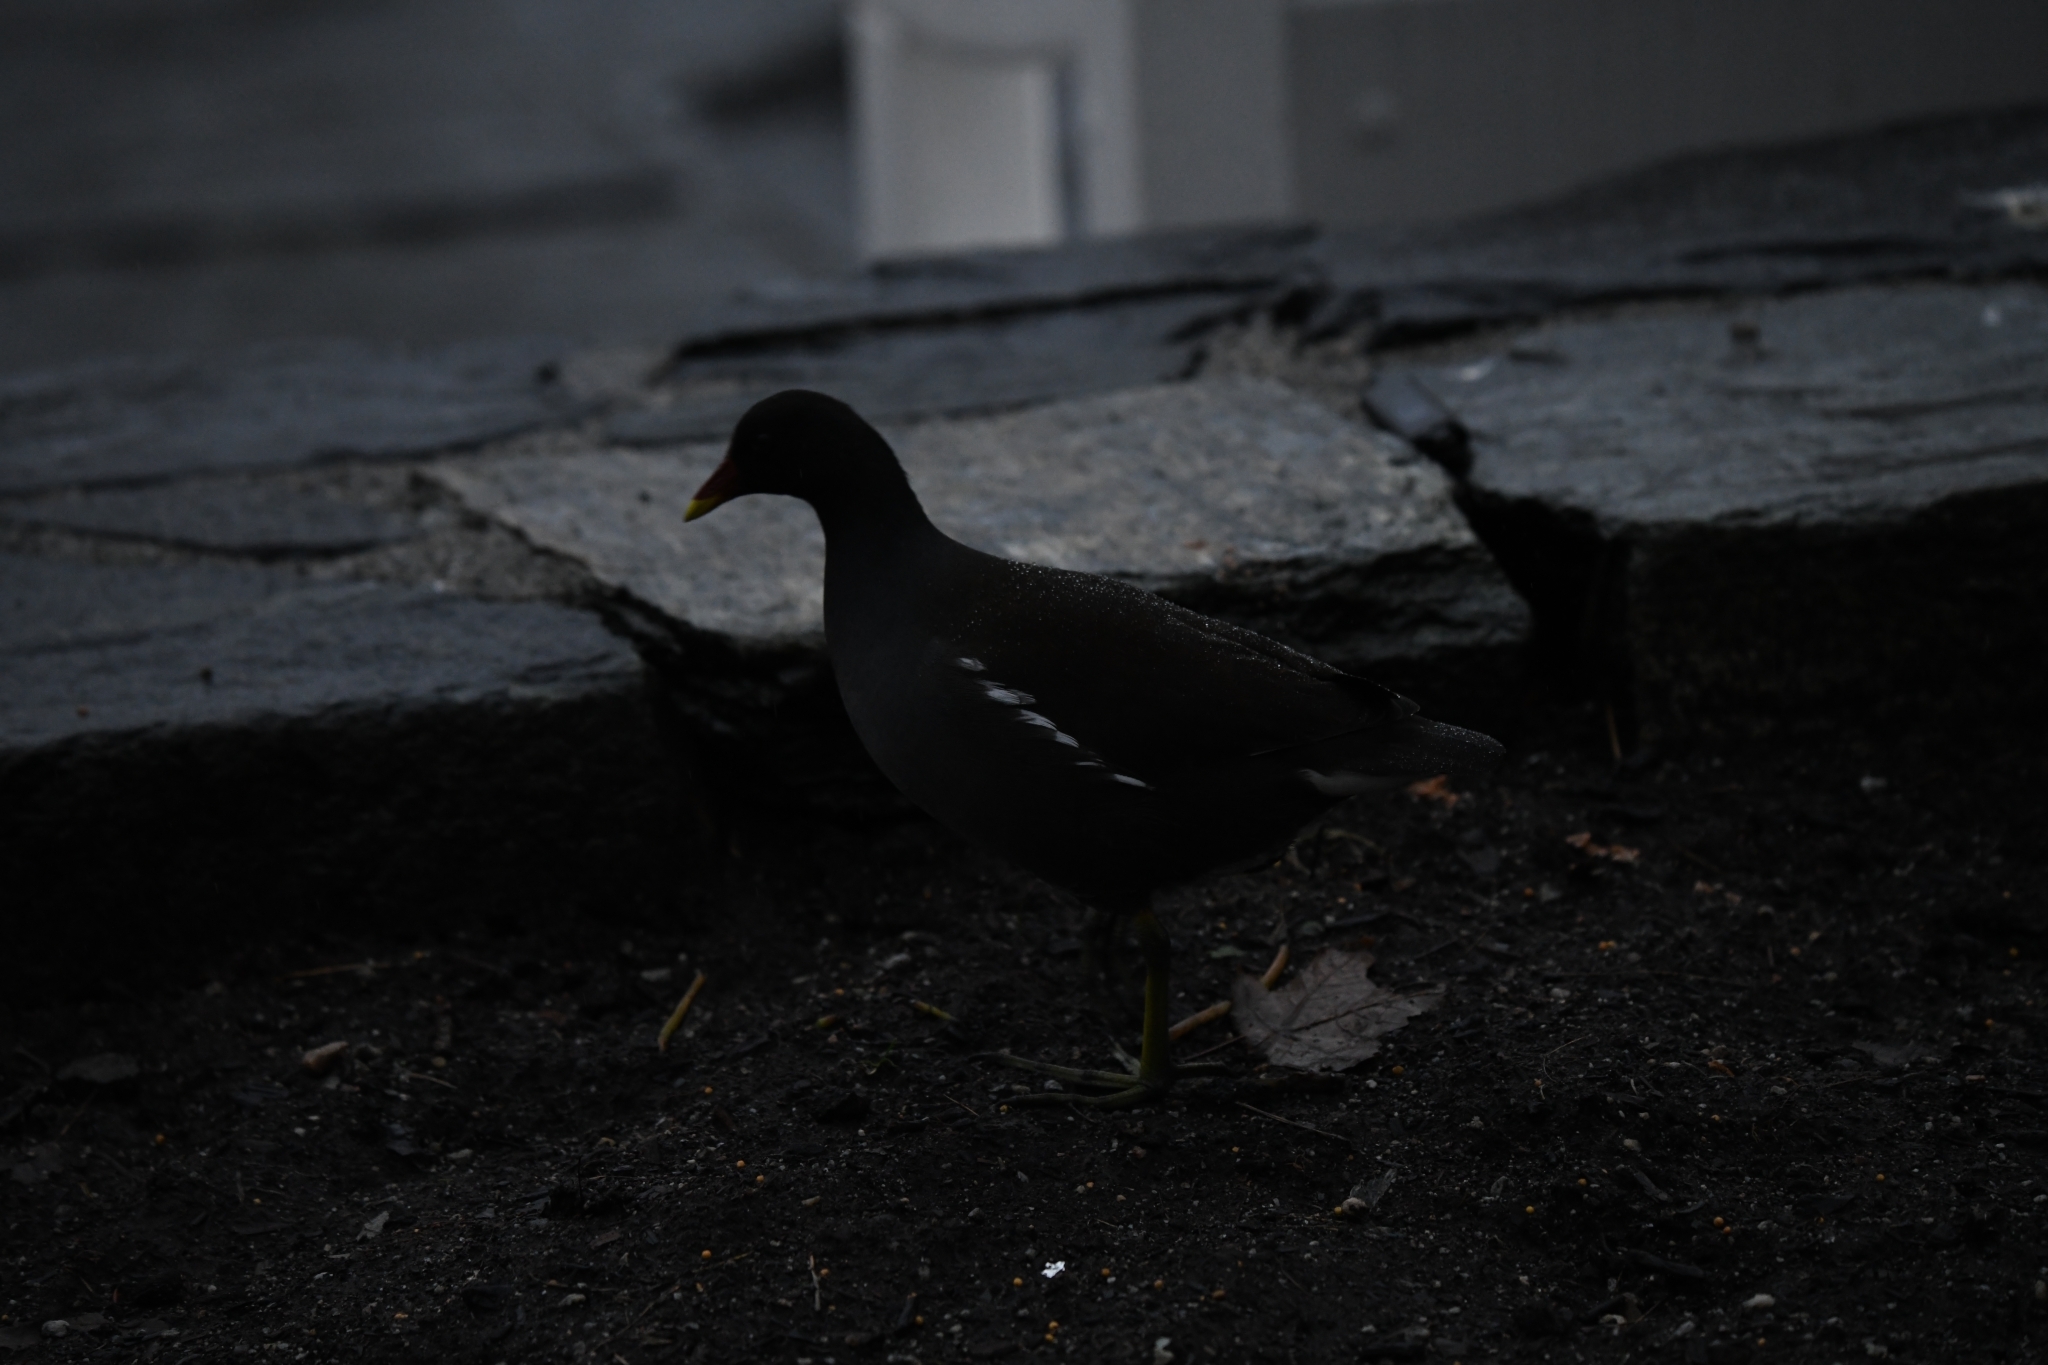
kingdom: Animalia
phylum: Chordata
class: Aves
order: Gruiformes
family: Rallidae
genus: Gallinula
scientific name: Gallinula chloropus
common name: Common moorhen
